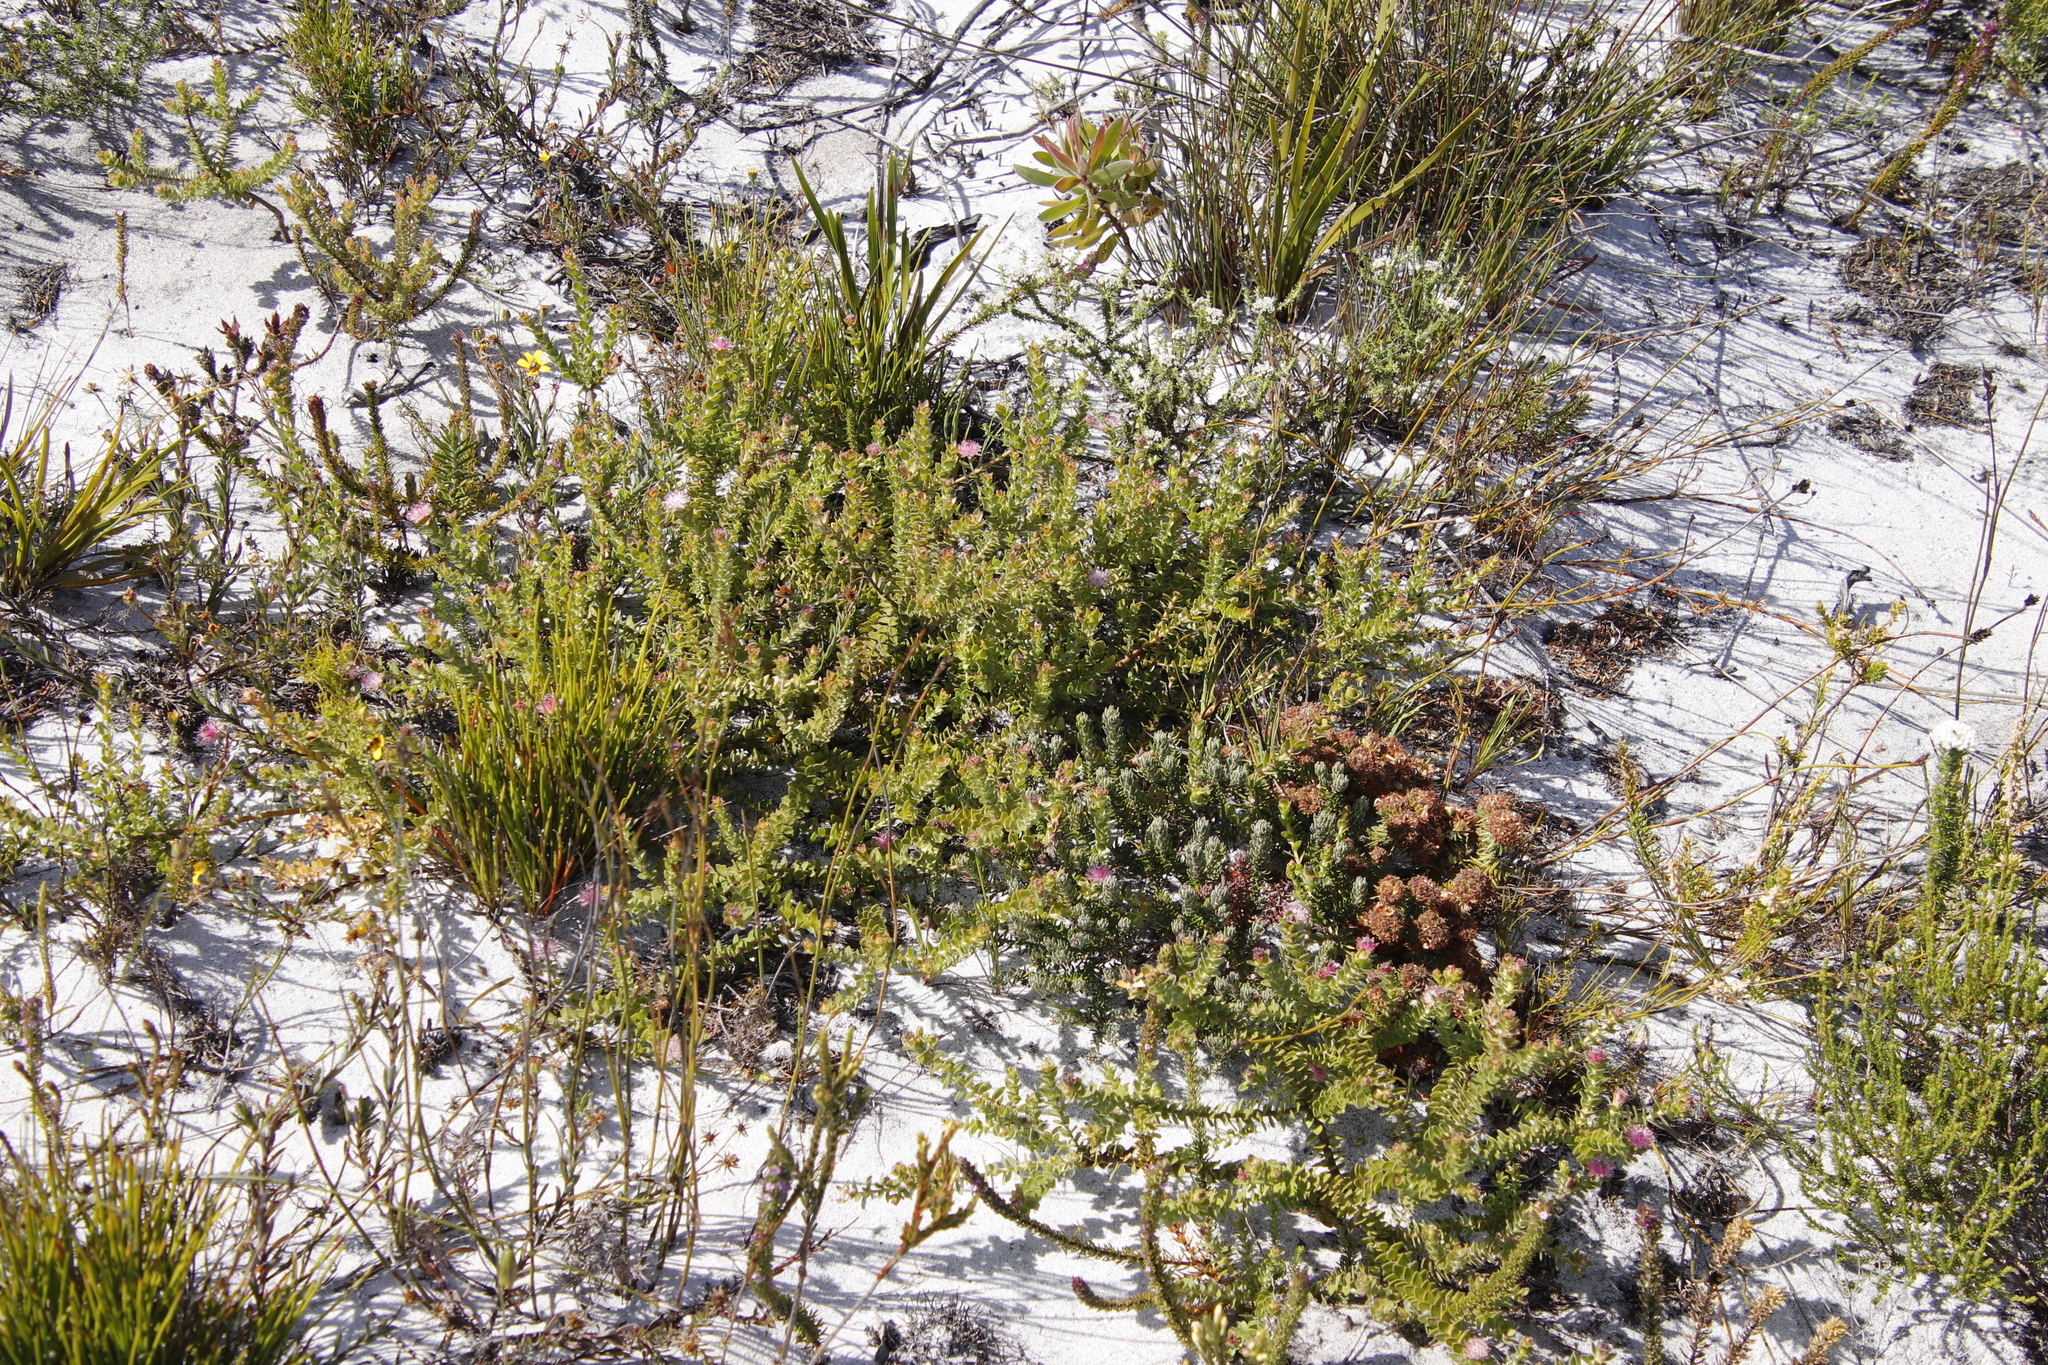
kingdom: Plantae
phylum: Tracheophyta
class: Magnoliopsida
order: Proteales
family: Proteaceae
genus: Diastella
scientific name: Diastella divaricata
